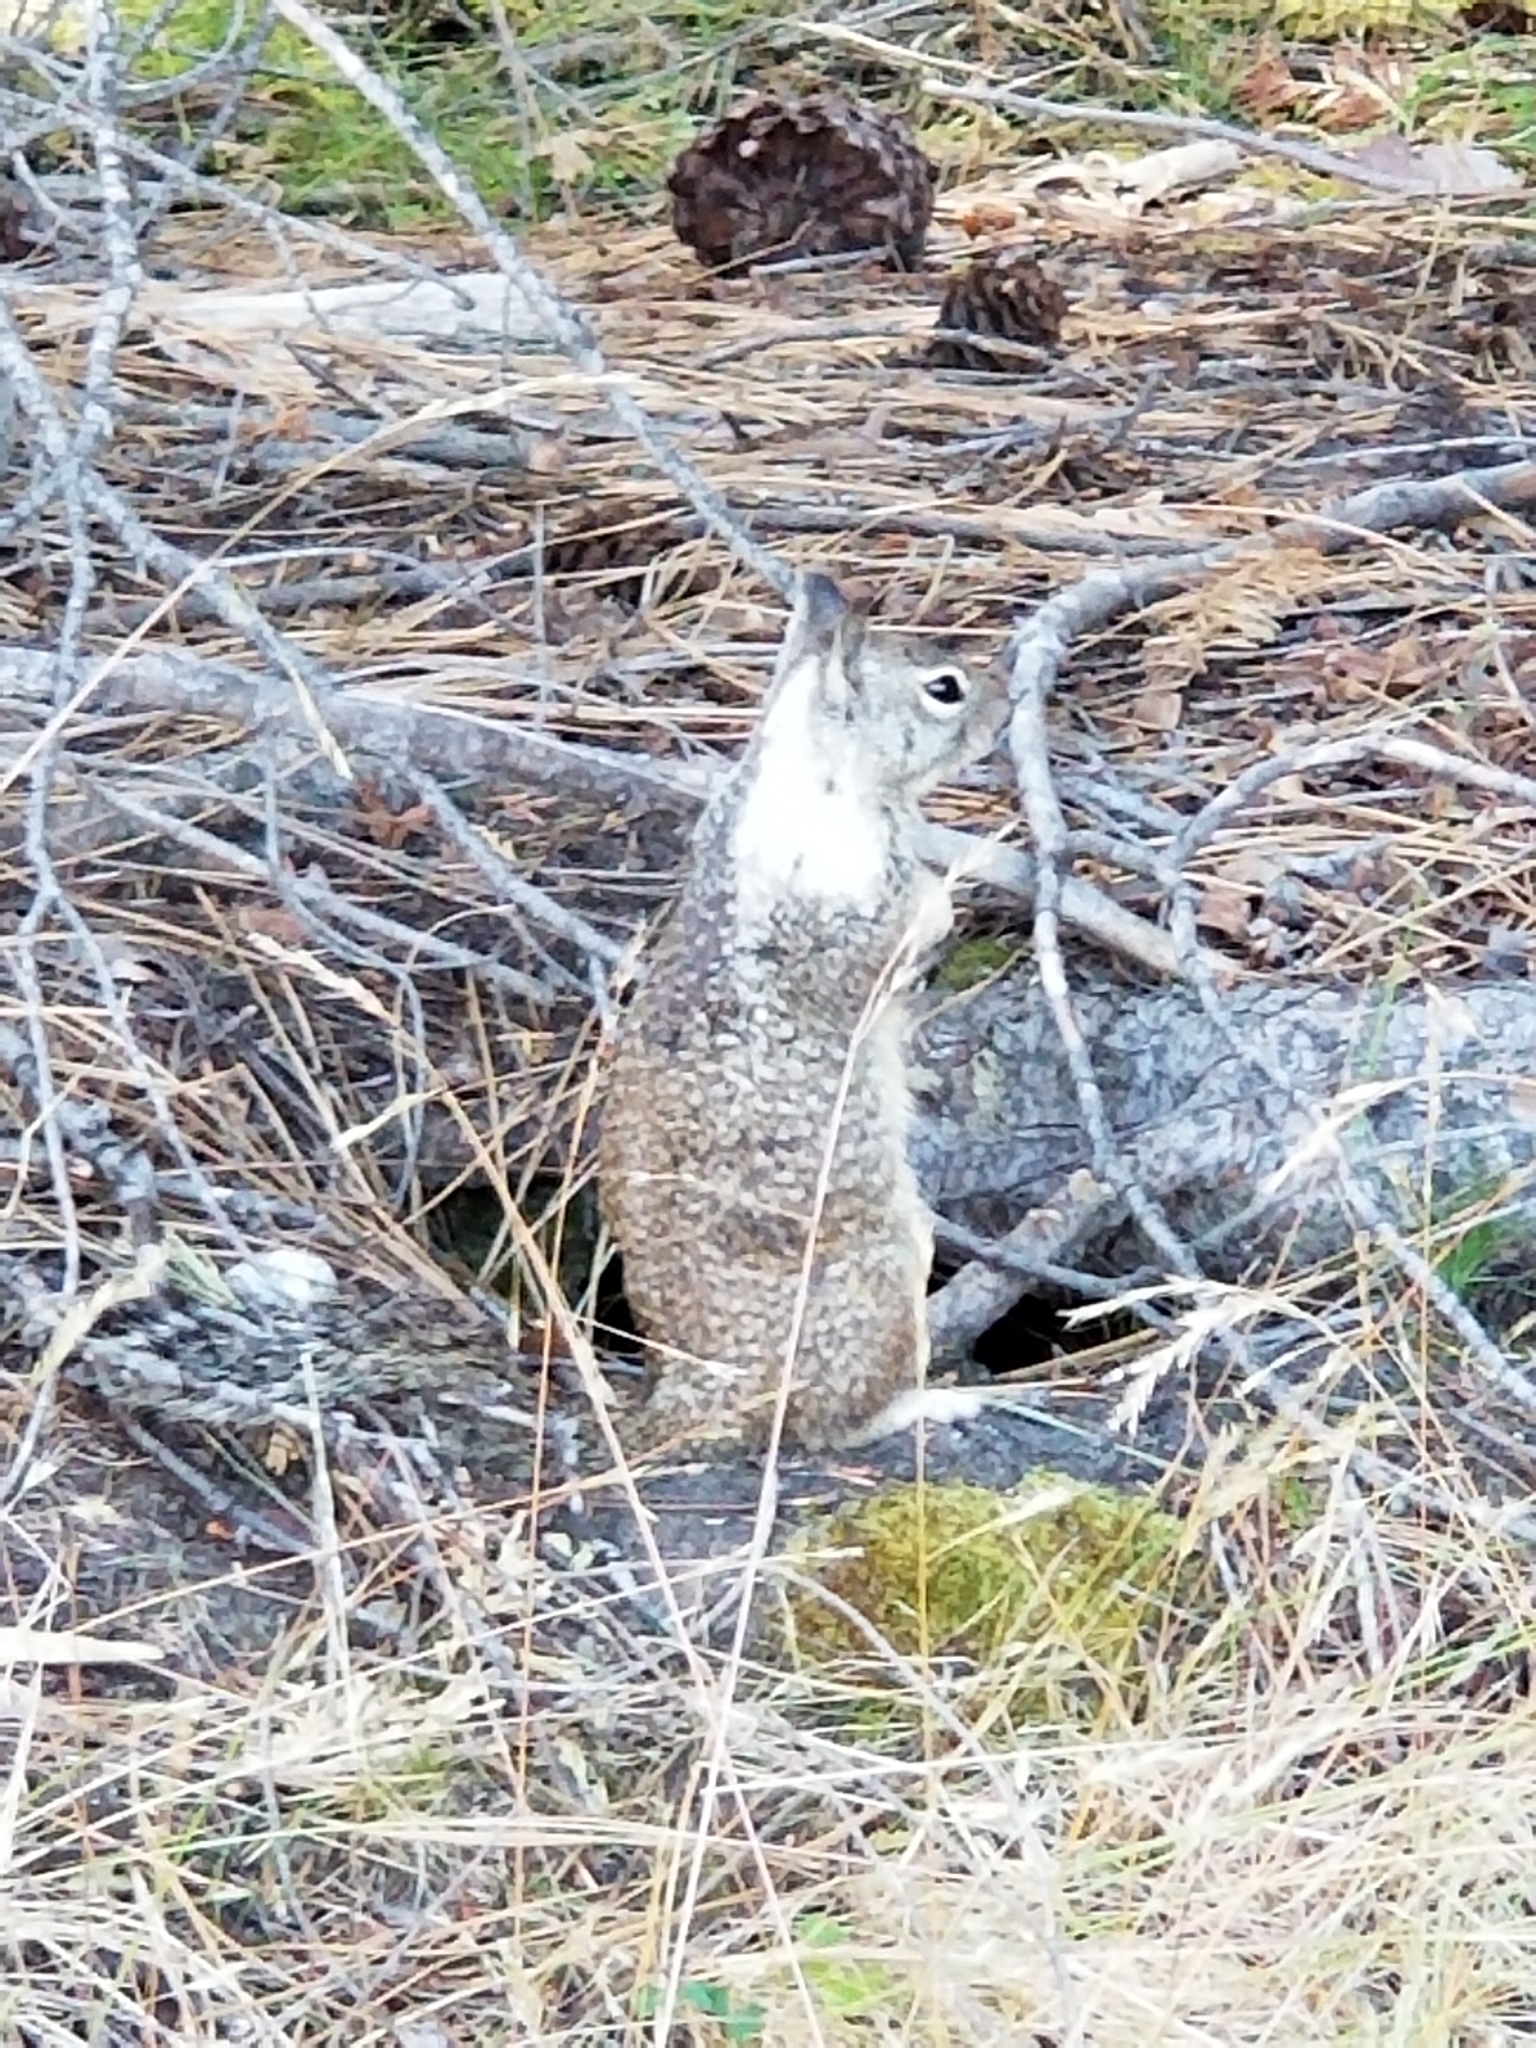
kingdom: Animalia
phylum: Chordata
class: Mammalia
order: Rodentia
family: Sciuridae
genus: Otospermophilus
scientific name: Otospermophilus beecheyi
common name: California ground squirrel
